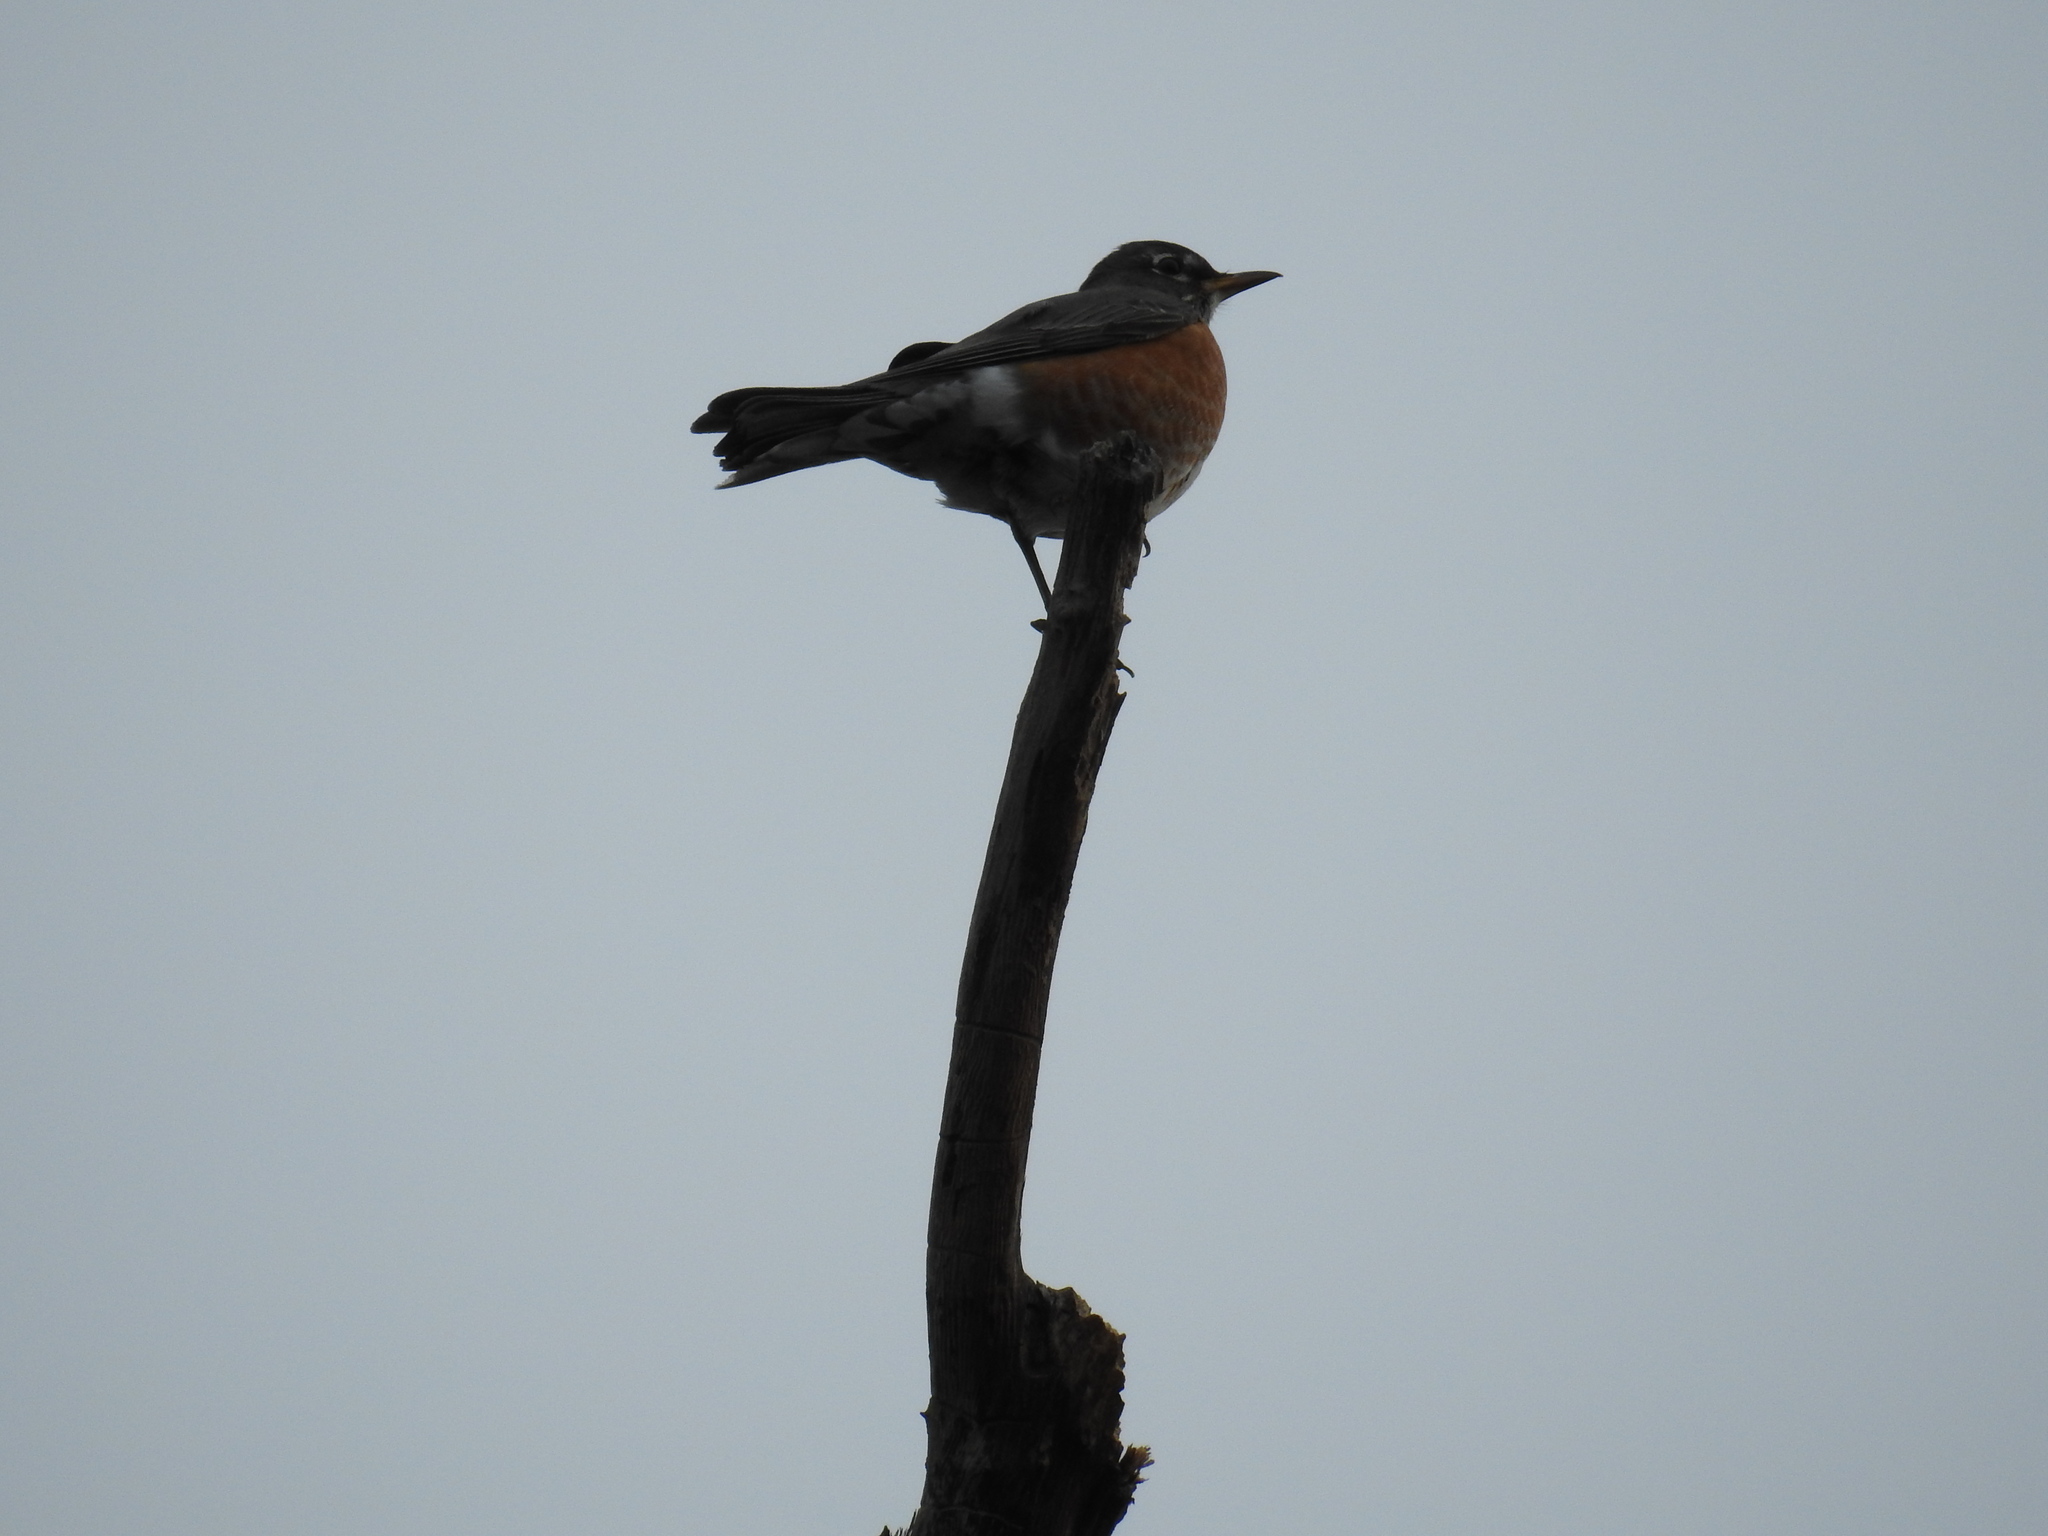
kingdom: Animalia
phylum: Chordata
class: Aves
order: Passeriformes
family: Turdidae
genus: Turdus
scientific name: Turdus migratorius
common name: American robin
